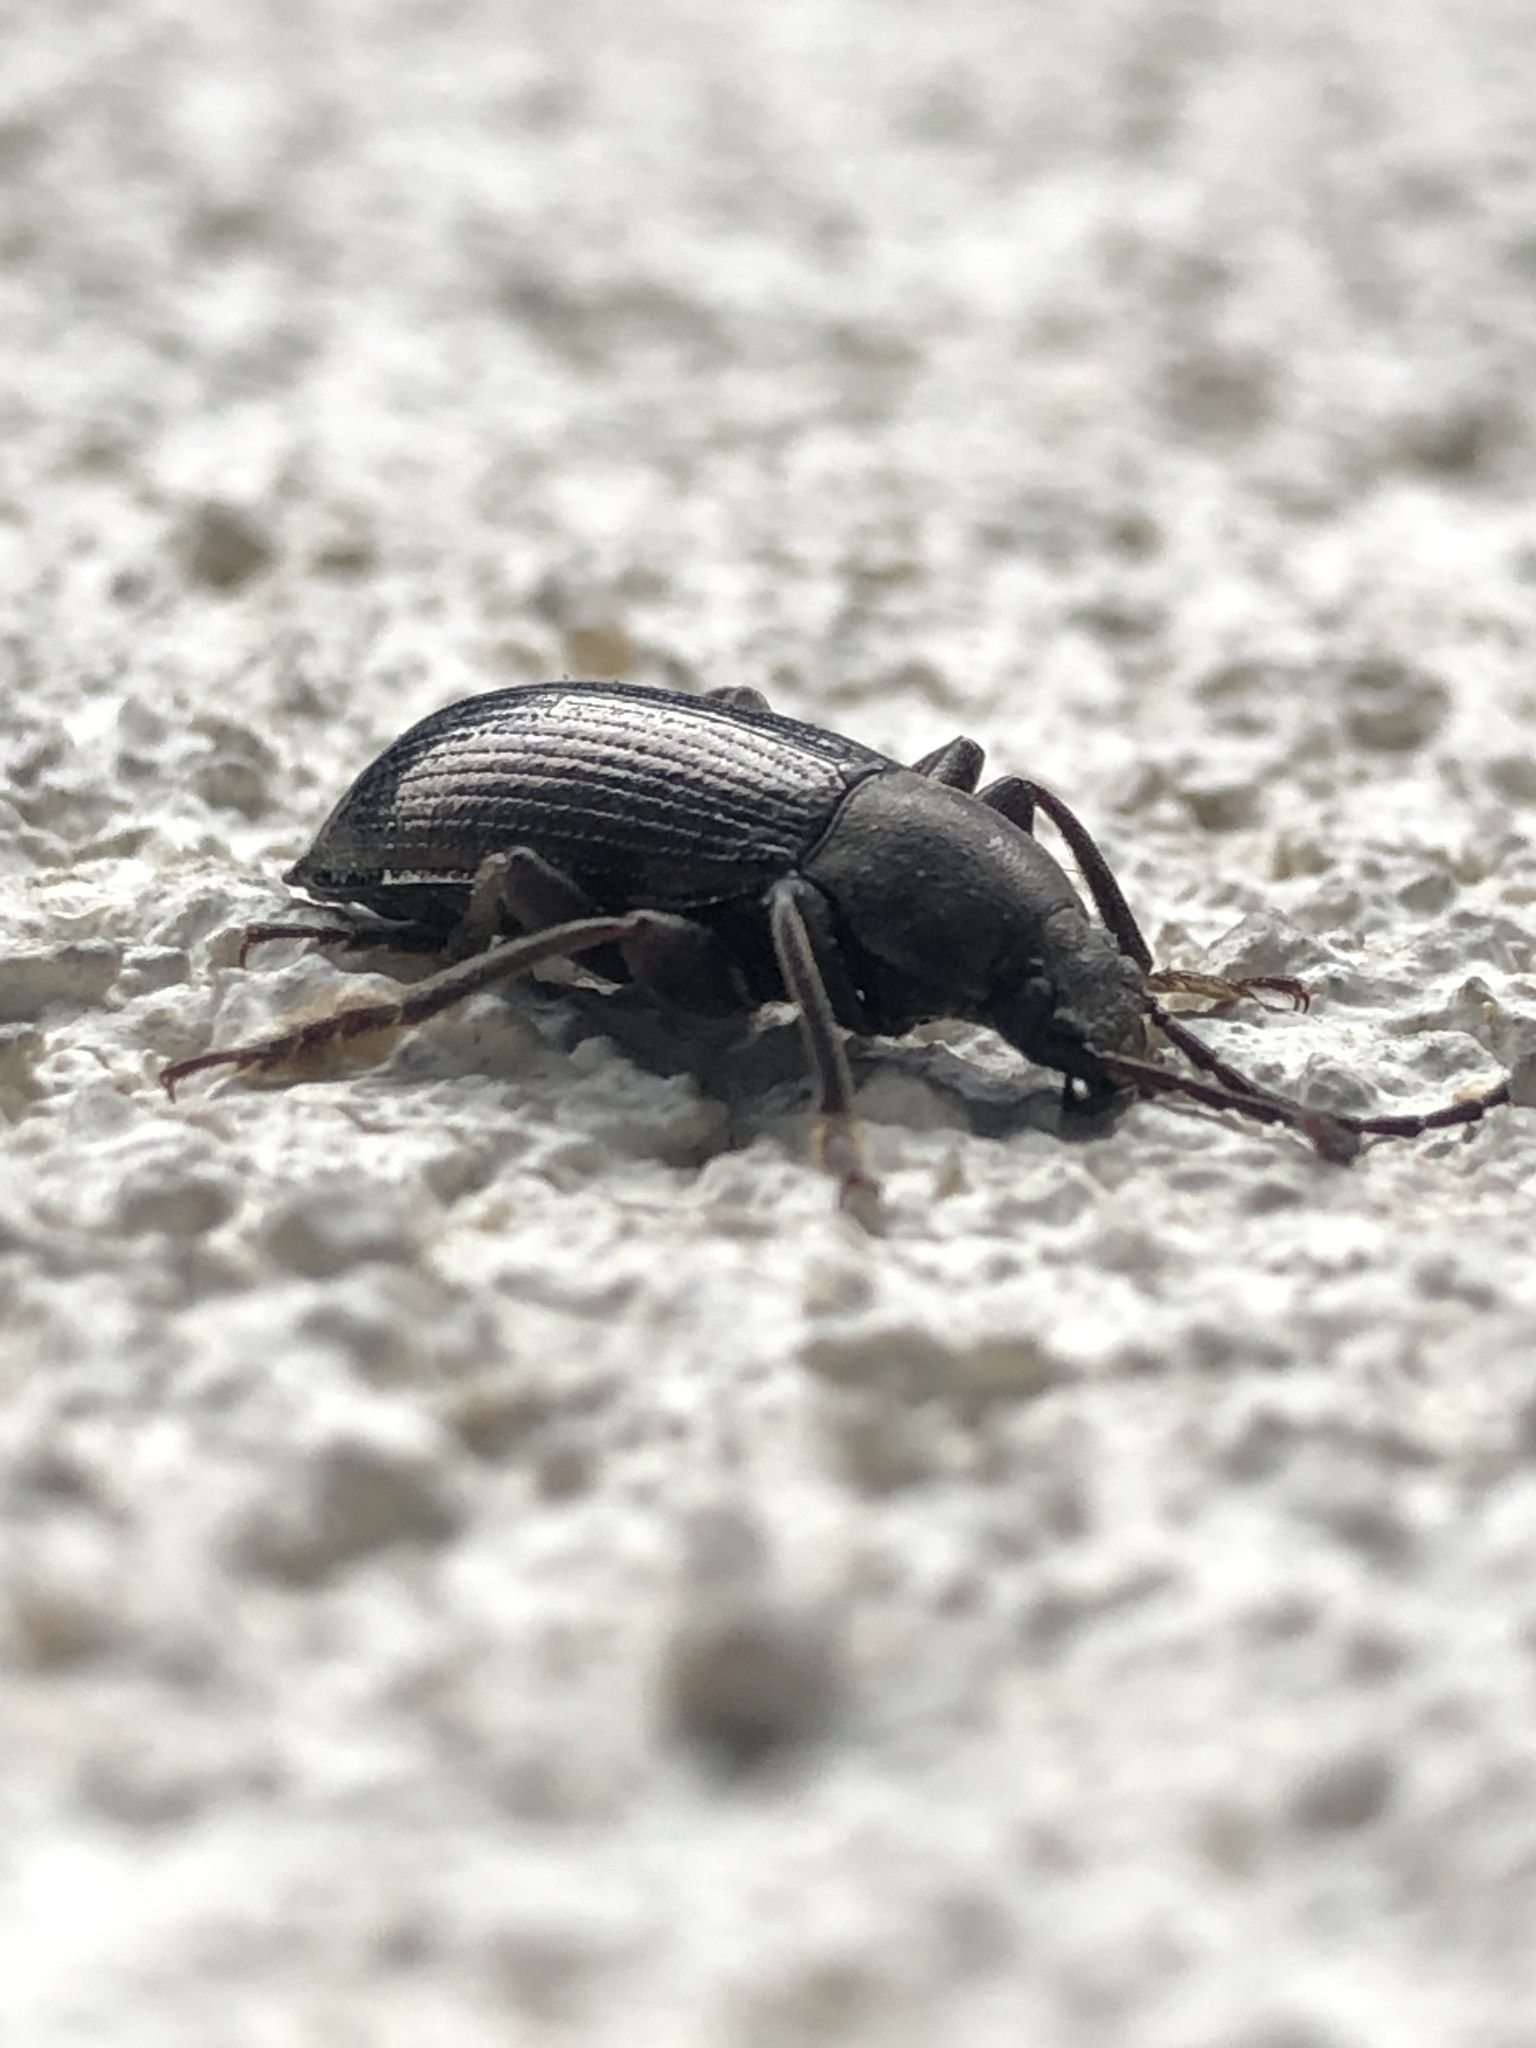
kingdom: Animalia
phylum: Arthropoda
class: Insecta
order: Coleoptera
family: Tenebrionidae
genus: Stenomax
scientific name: Stenomax aeneus
